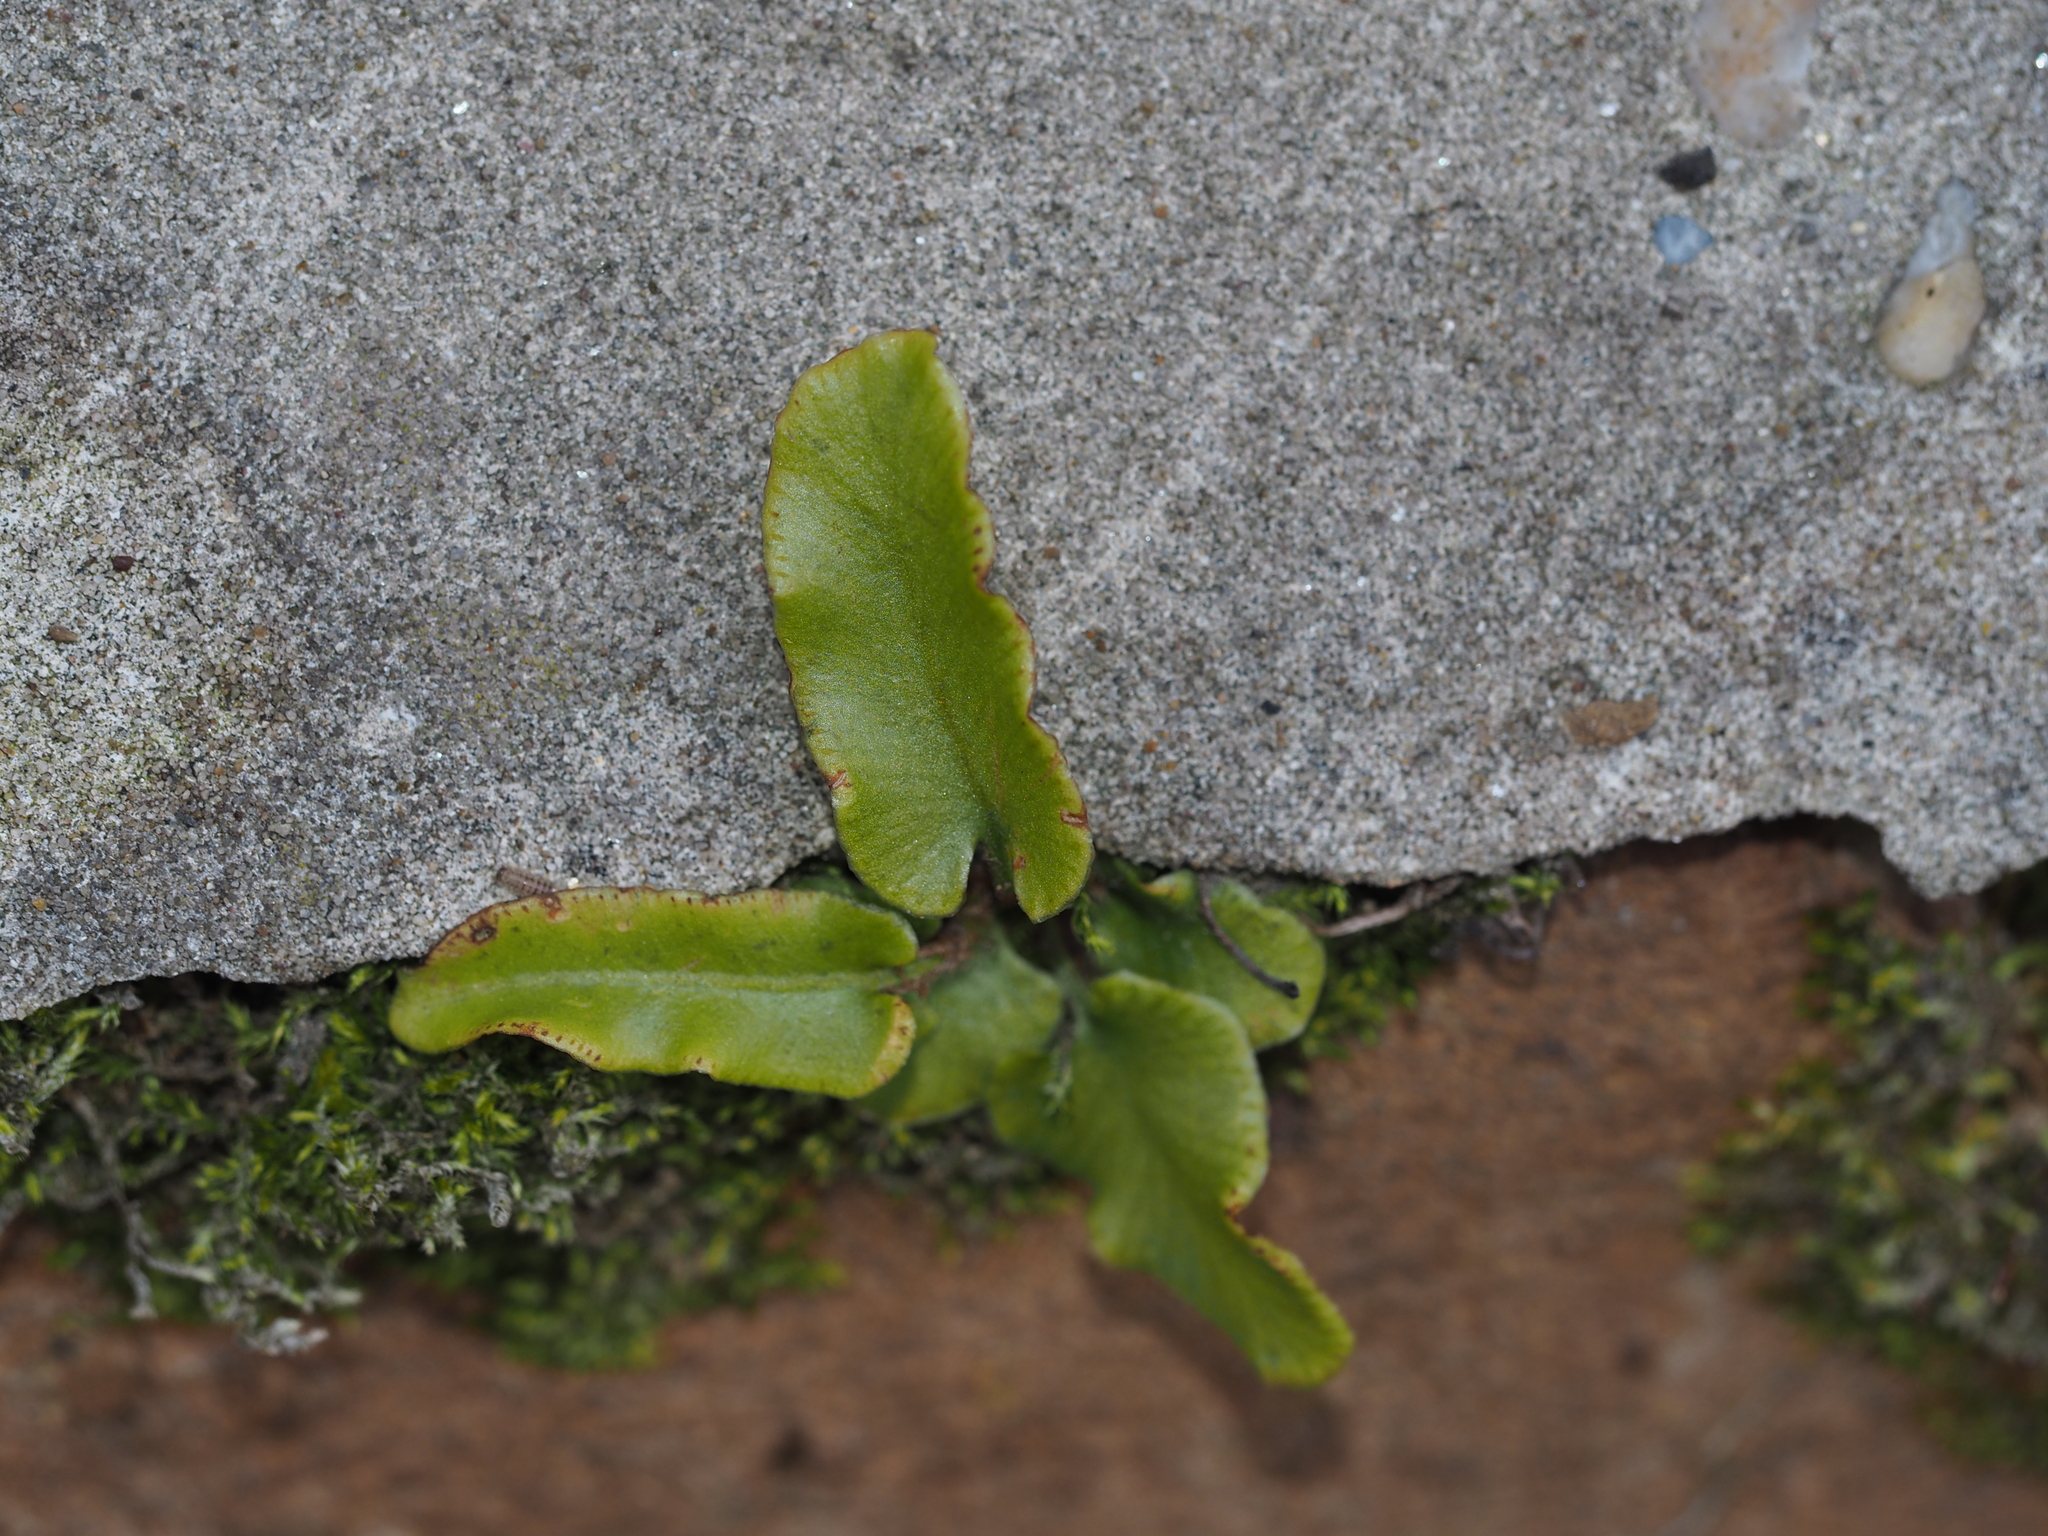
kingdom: Plantae
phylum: Tracheophyta
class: Polypodiopsida
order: Polypodiales
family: Aspleniaceae
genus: Asplenium
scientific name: Asplenium scolopendrium
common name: Hart's-tongue fern
